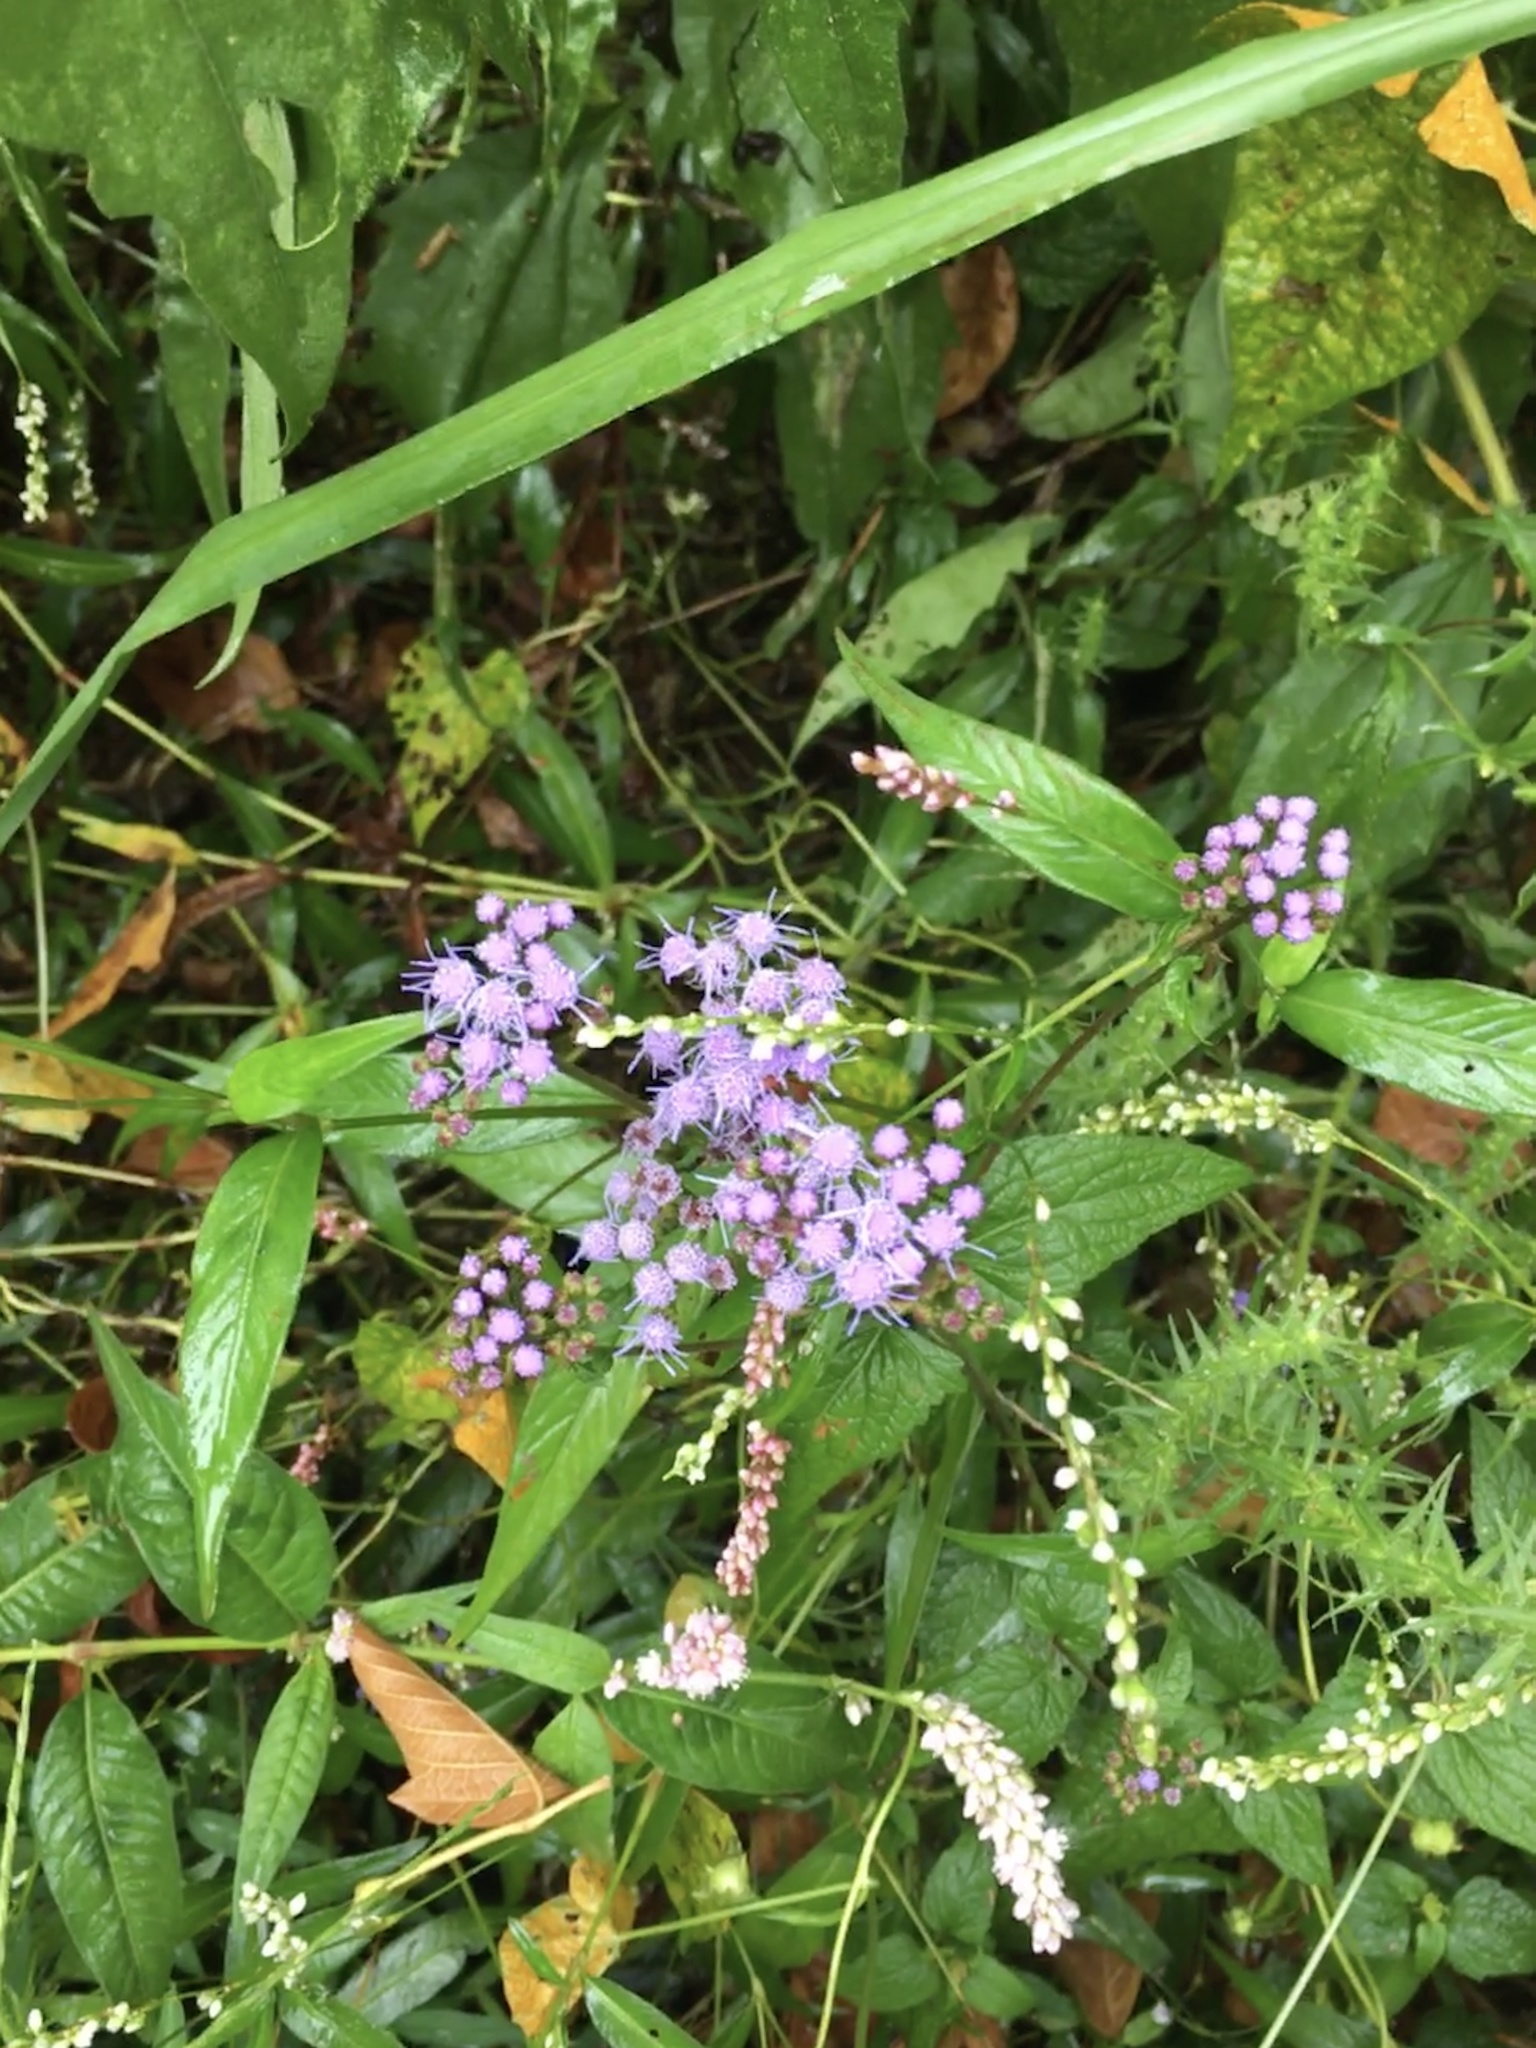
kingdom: Plantae
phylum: Tracheophyta
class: Magnoliopsida
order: Asterales
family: Asteraceae
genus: Conoclinium
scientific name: Conoclinium coelestinum
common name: Blue mistflower
